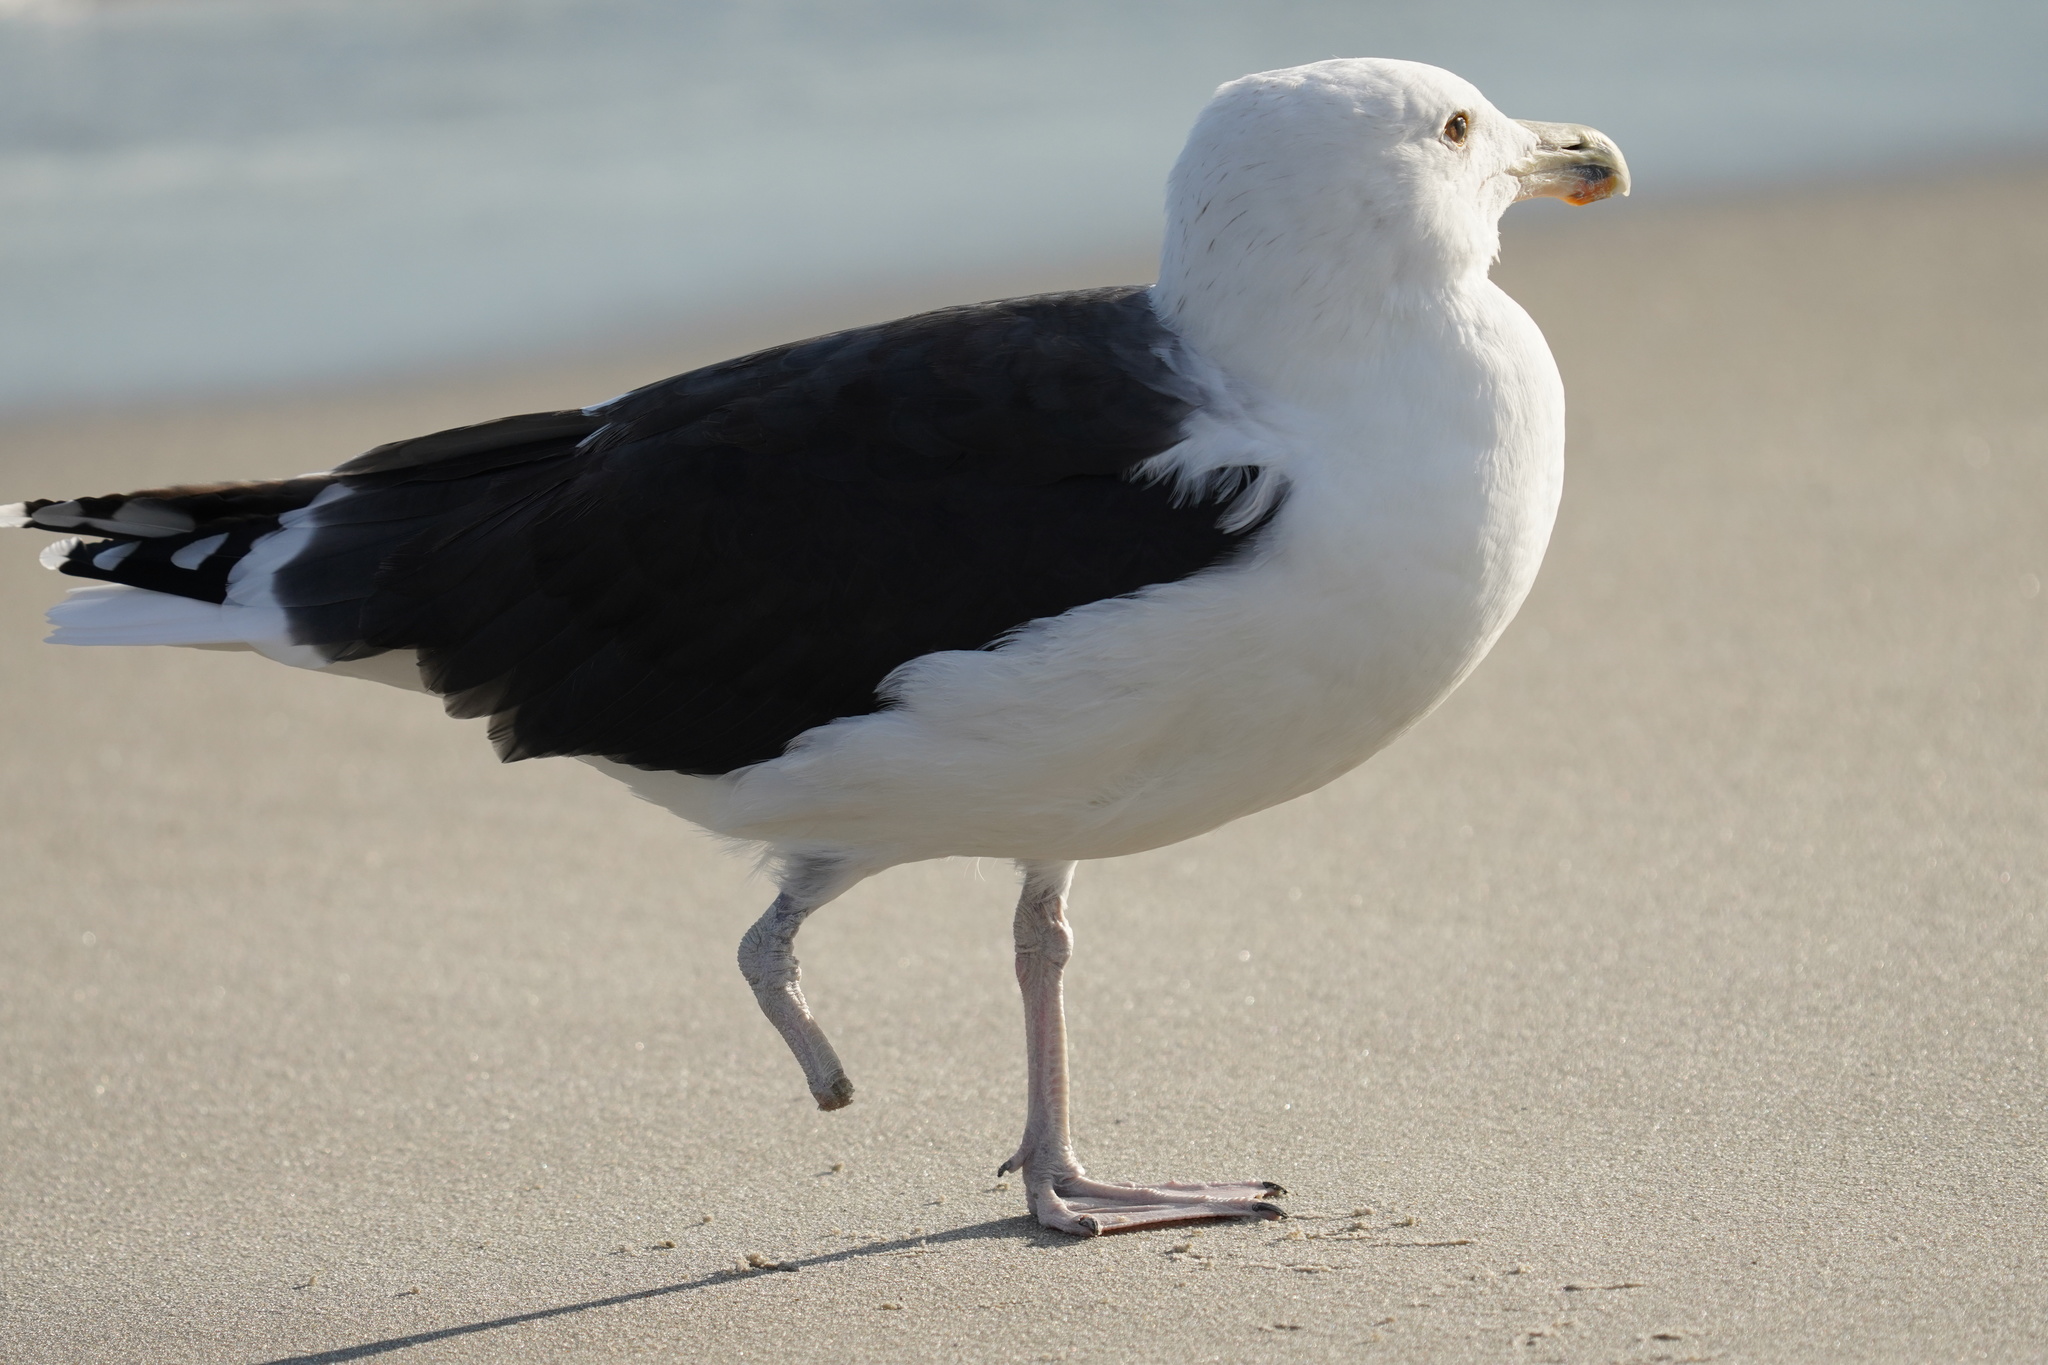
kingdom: Animalia
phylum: Chordata
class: Aves
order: Charadriiformes
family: Laridae
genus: Larus
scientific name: Larus marinus
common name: Great black-backed gull
